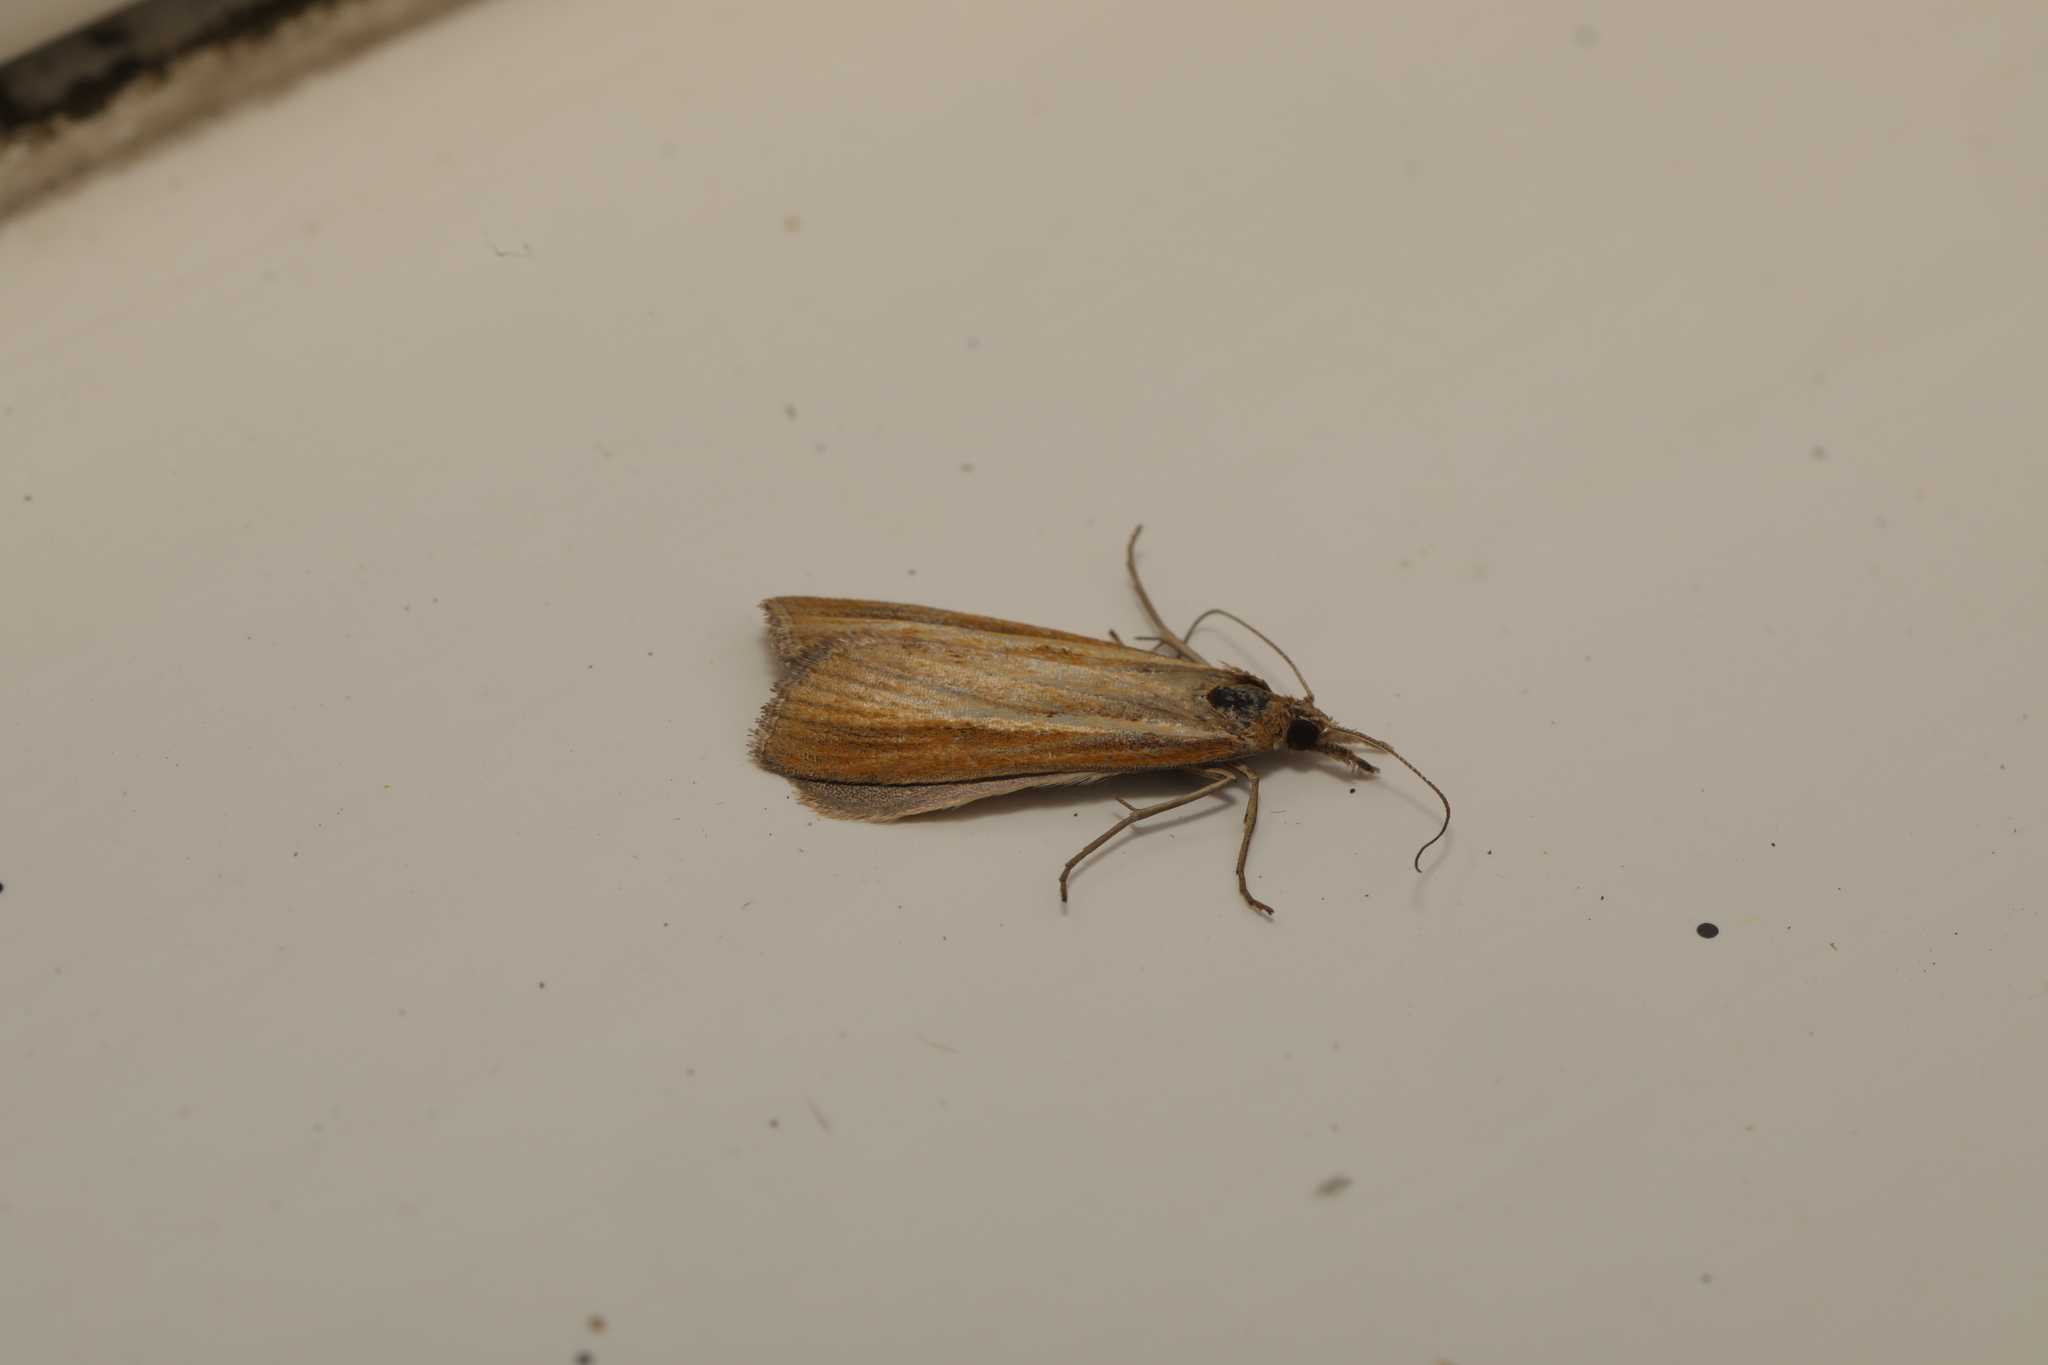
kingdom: Animalia
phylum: Arthropoda
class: Insecta
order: Lepidoptera
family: Crambidae
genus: Agriphila
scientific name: Agriphila straminella
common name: Straw grass-veneer
